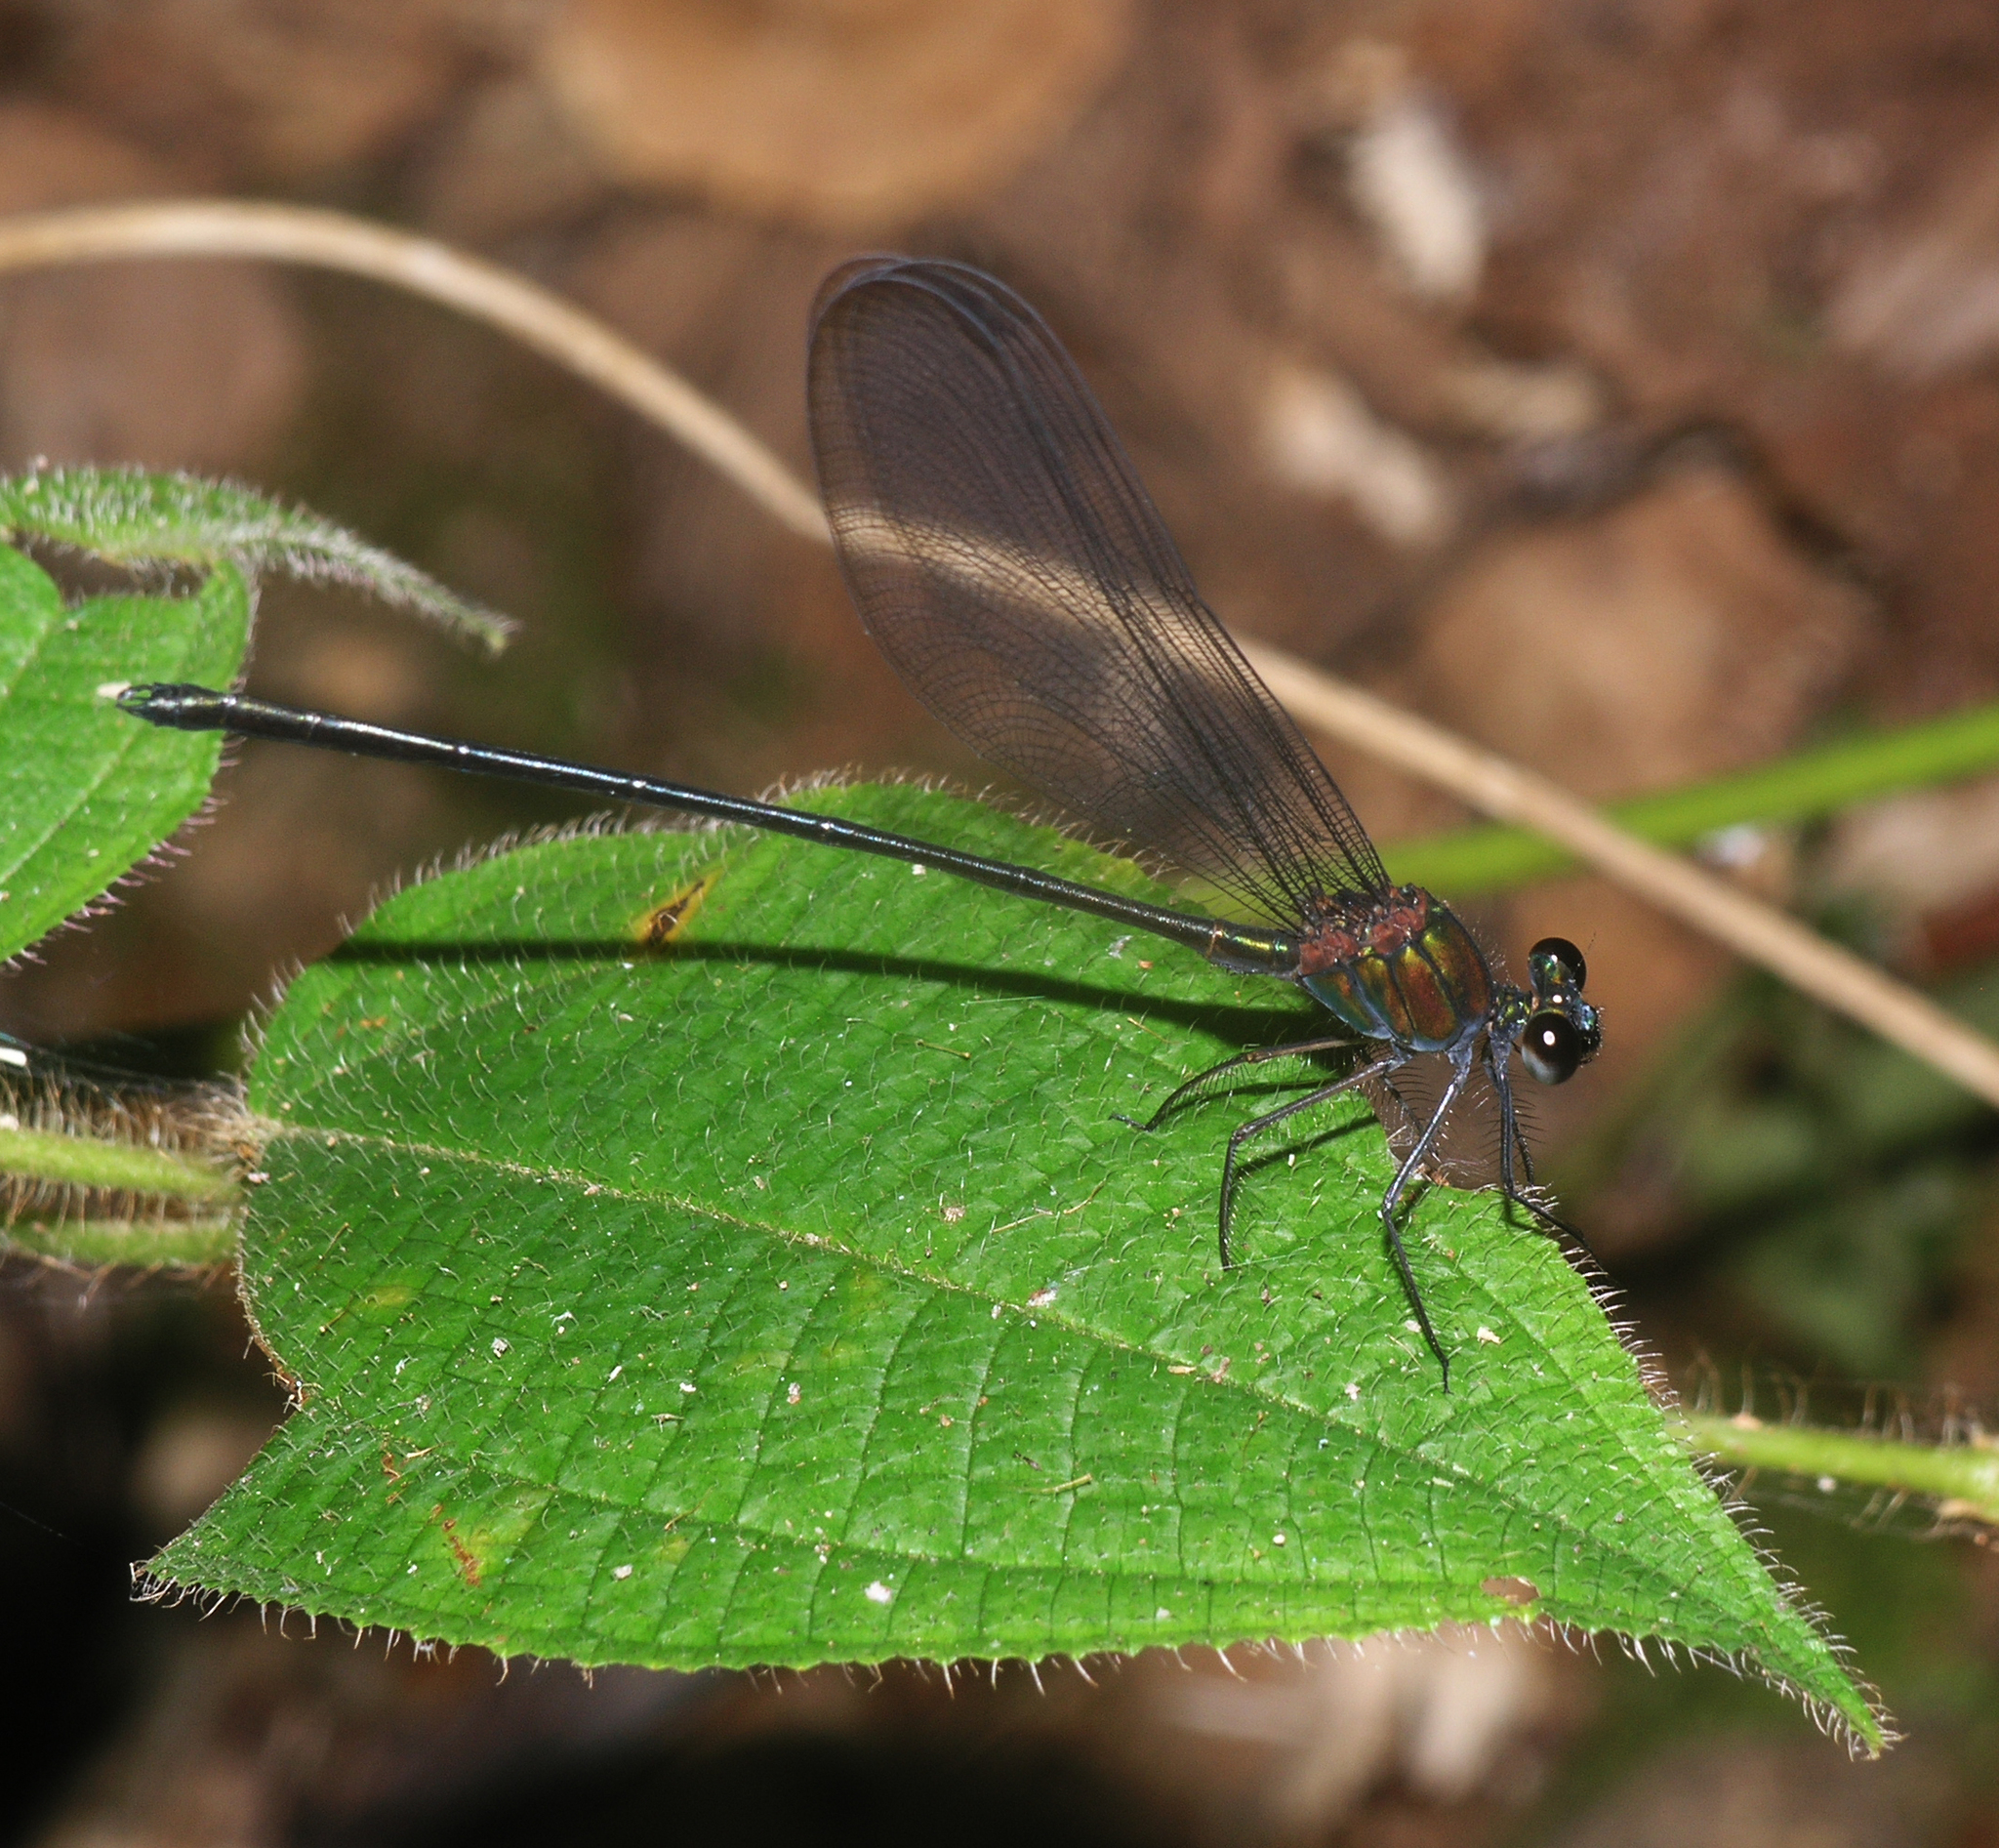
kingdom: Animalia
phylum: Arthropoda
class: Insecta
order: Odonata
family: Calopterygidae
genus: Echo
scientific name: Echo modesta
